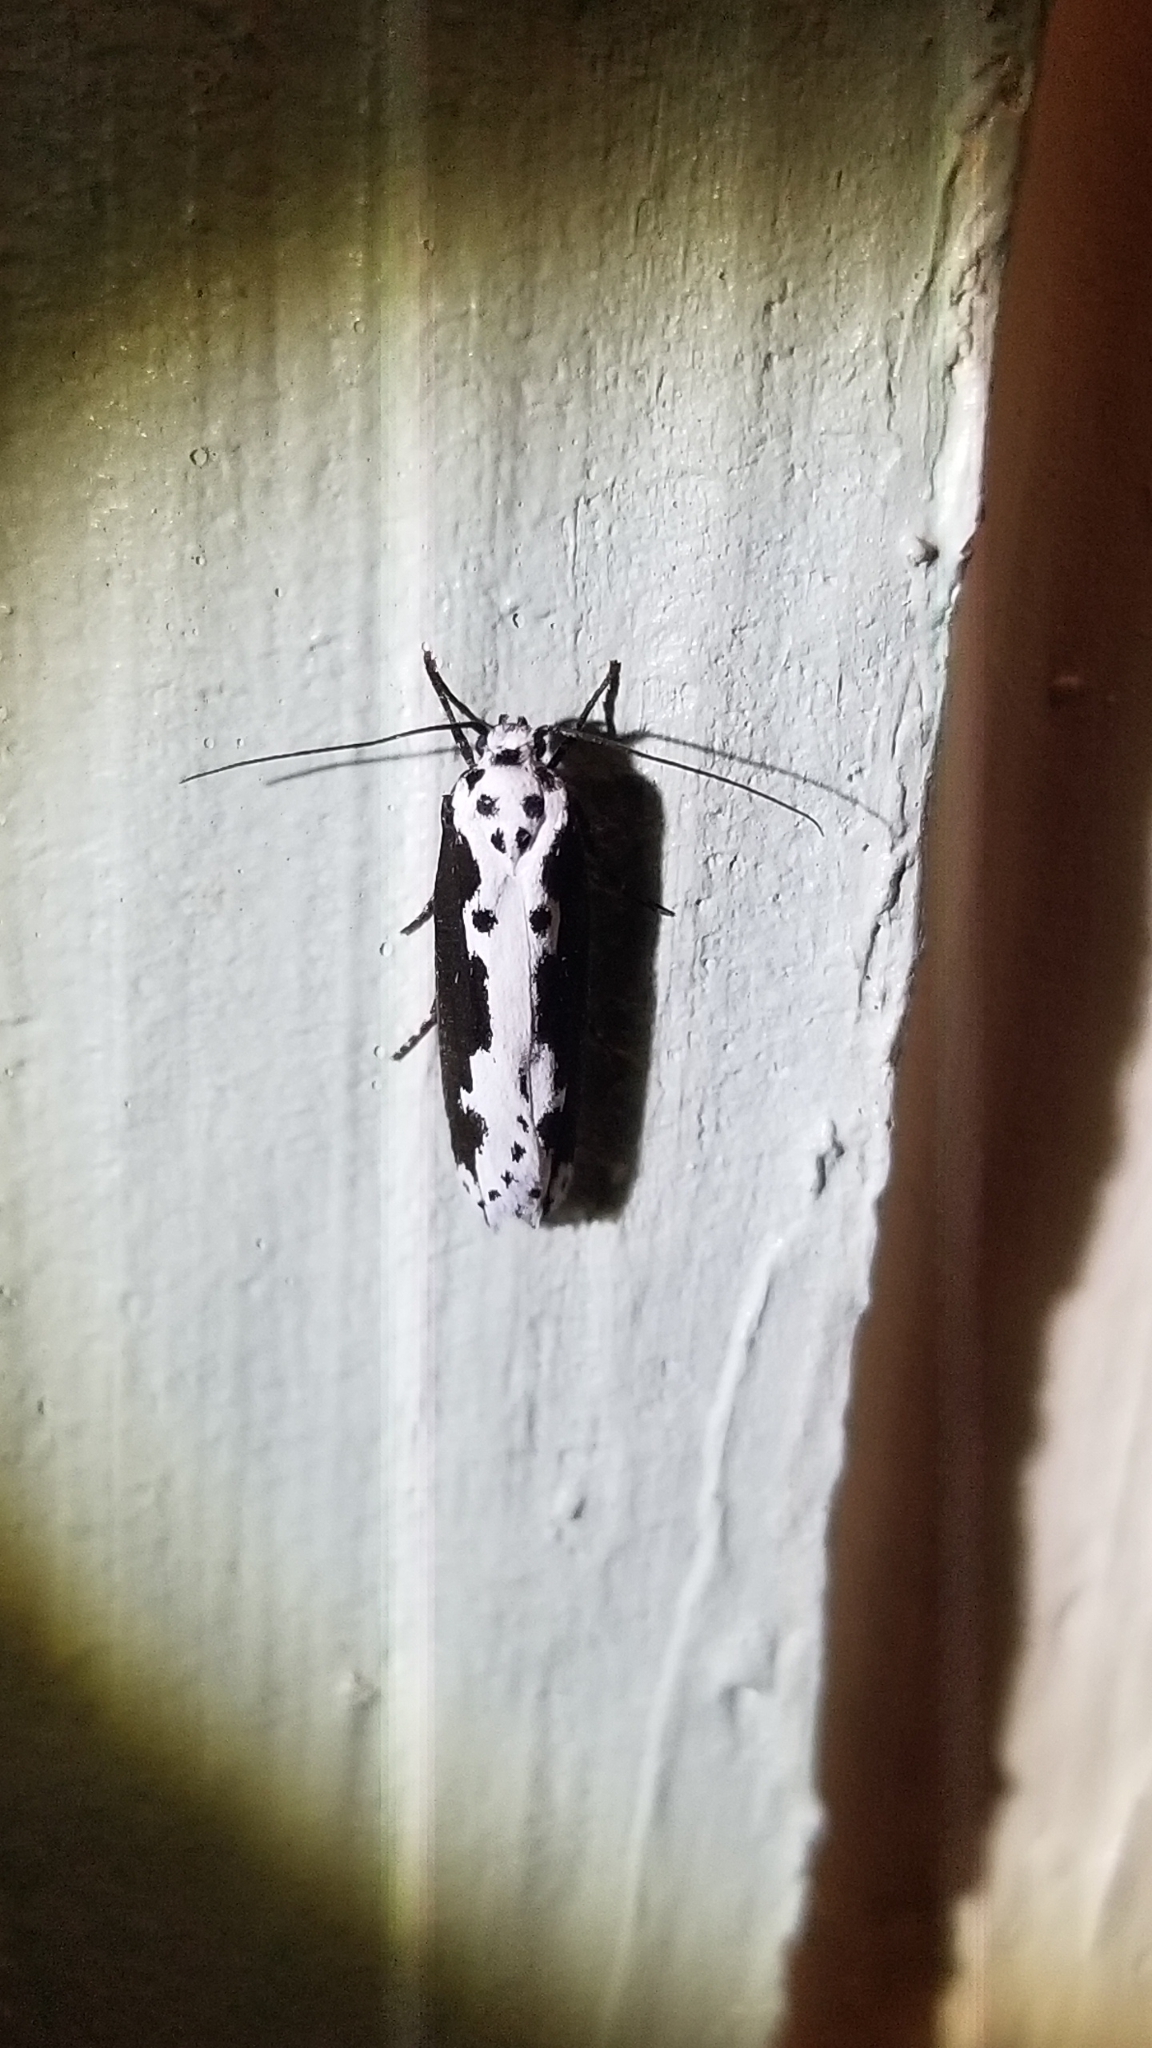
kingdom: Animalia
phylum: Arthropoda
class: Insecta
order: Lepidoptera
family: Ethmiidae
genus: Ethmia
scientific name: Ethmia semilugens
